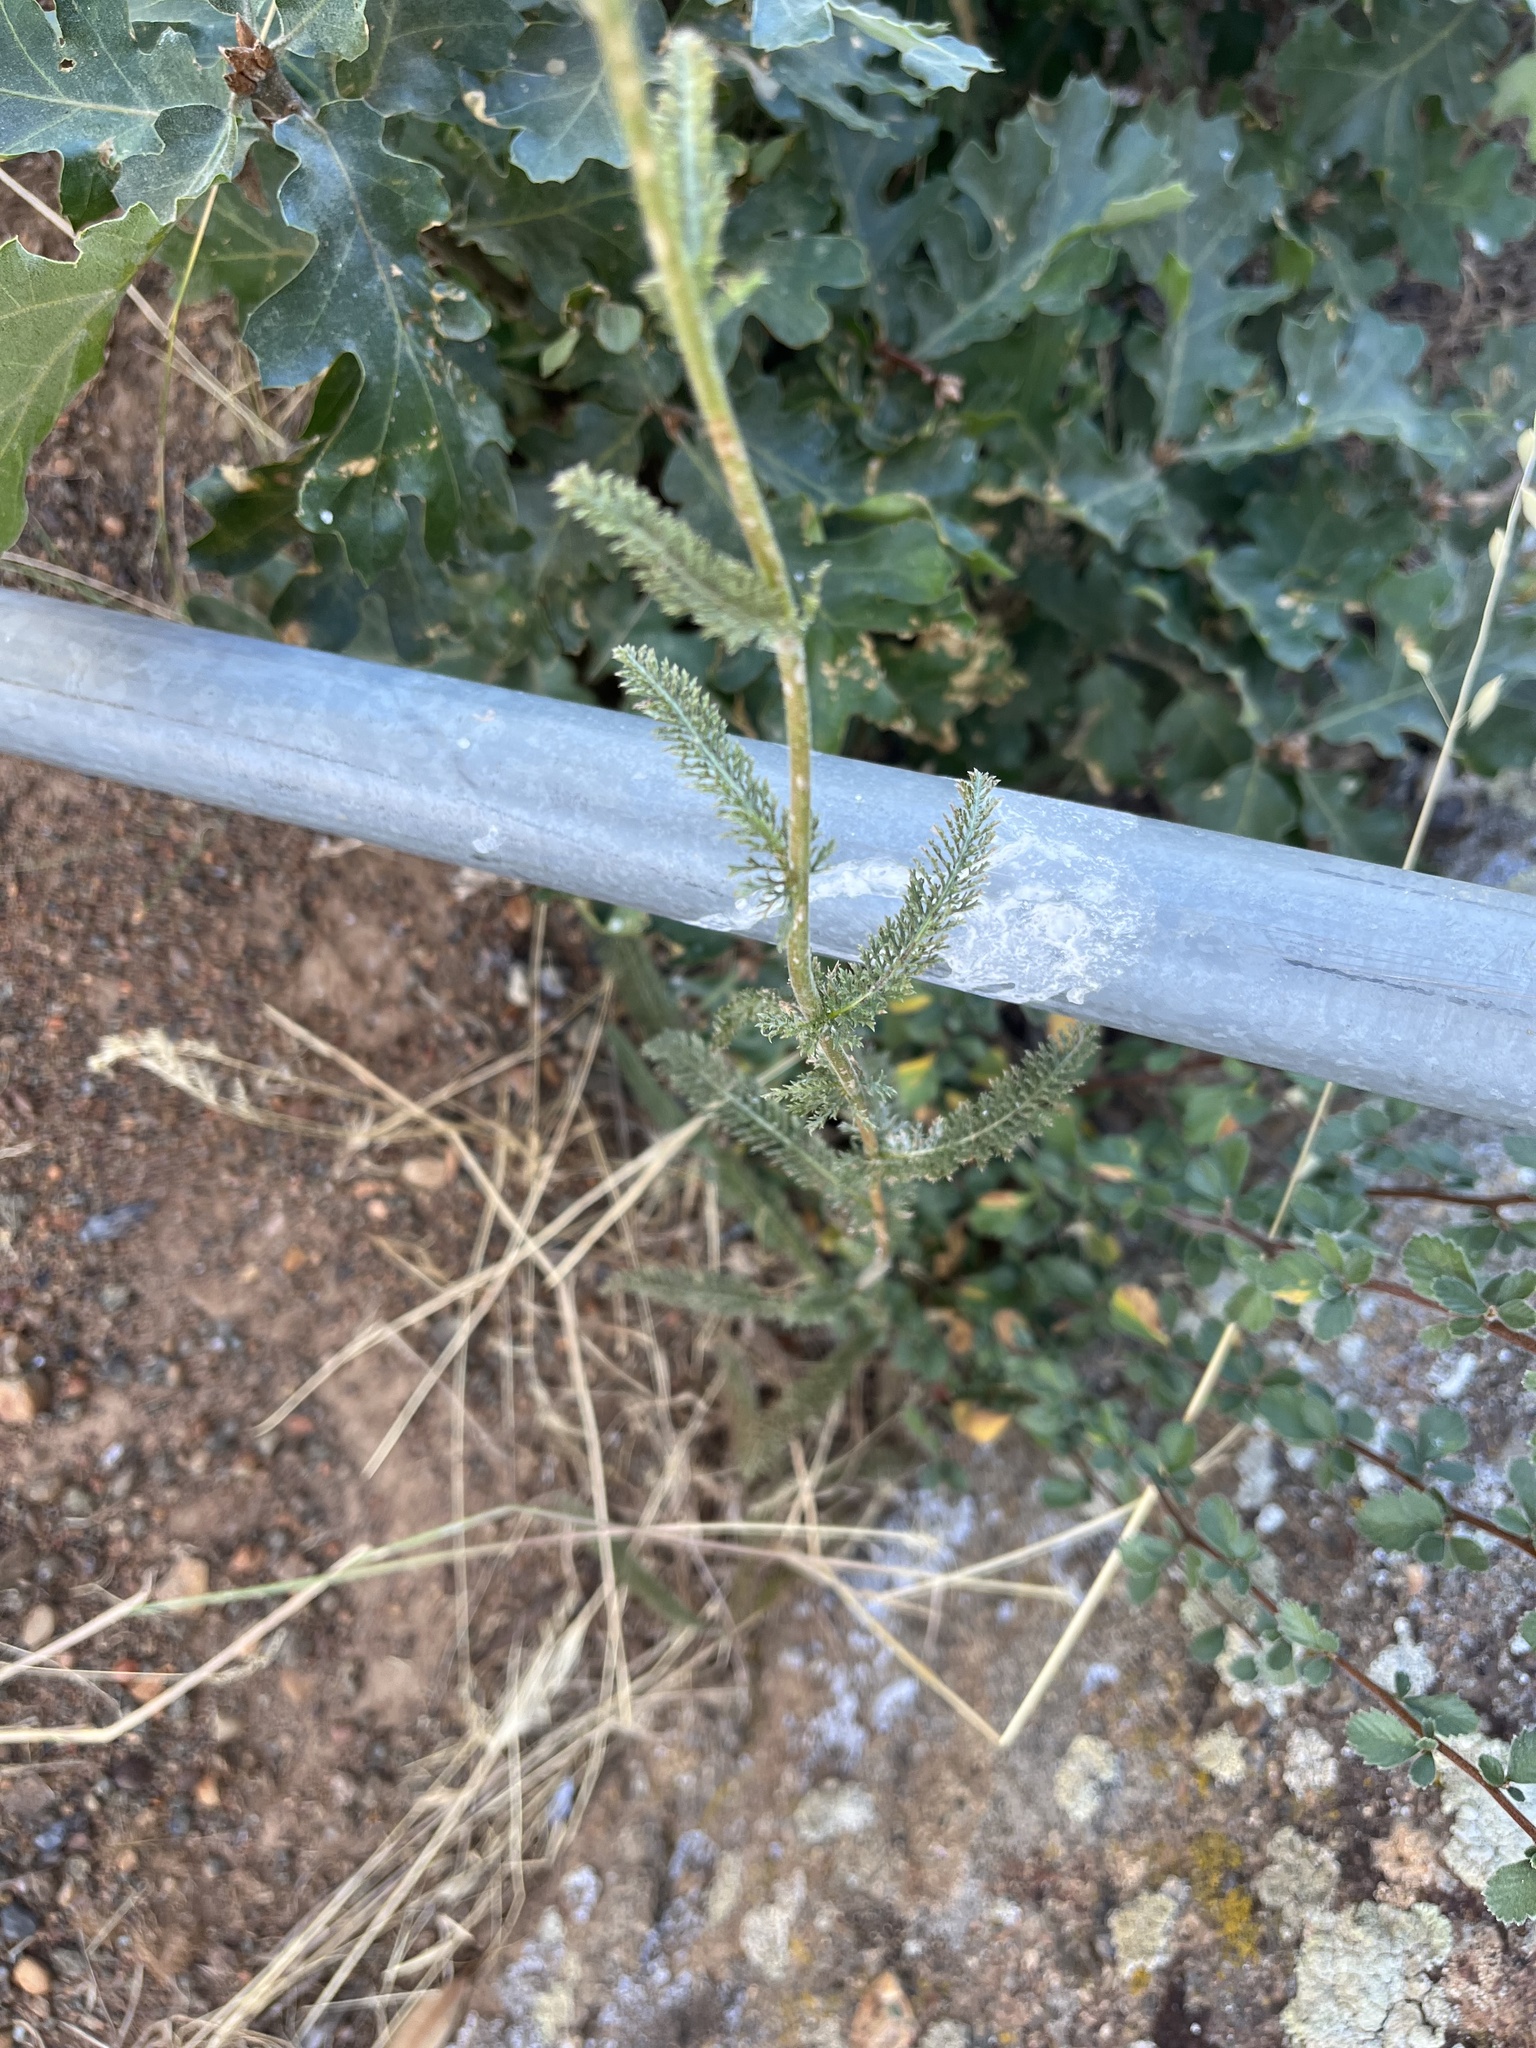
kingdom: Plantae
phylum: Tracheophyta
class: Magnoliopsida
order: Asterales
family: Asteraceae
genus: Achillea
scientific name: Achillea millefolium
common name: Yarrow
